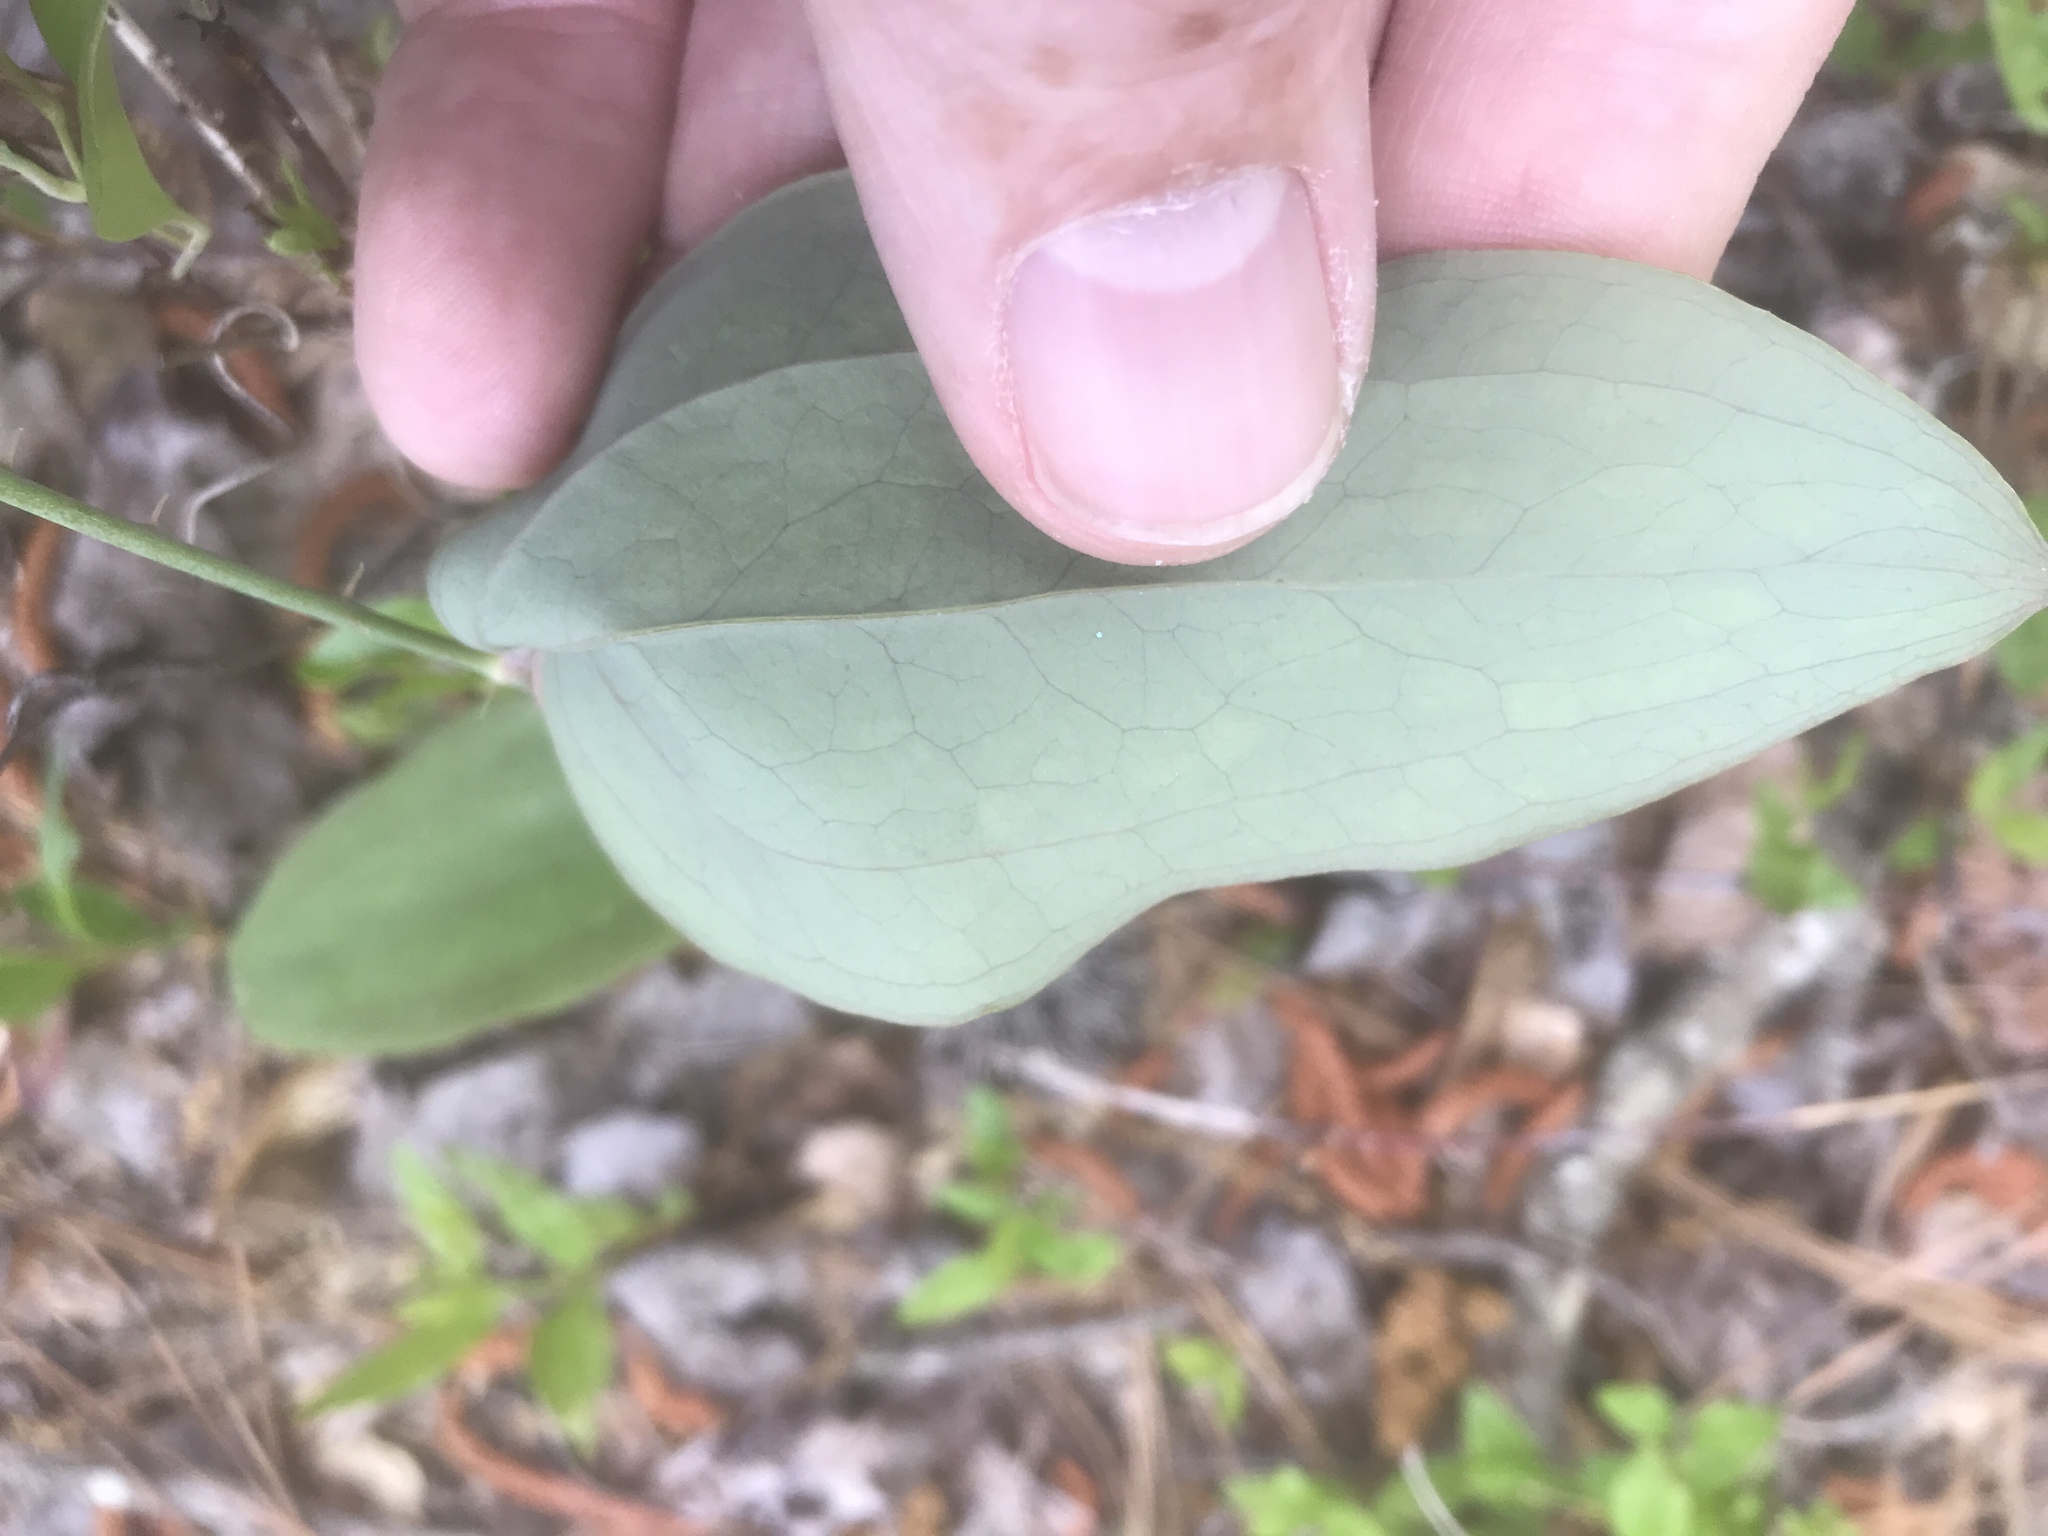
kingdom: Plantae
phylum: Tracheophyta
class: Liliopsida
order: Liliales
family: Smilacaceae
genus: Smilax
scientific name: Smilax glauca
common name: Cat greenbrier
